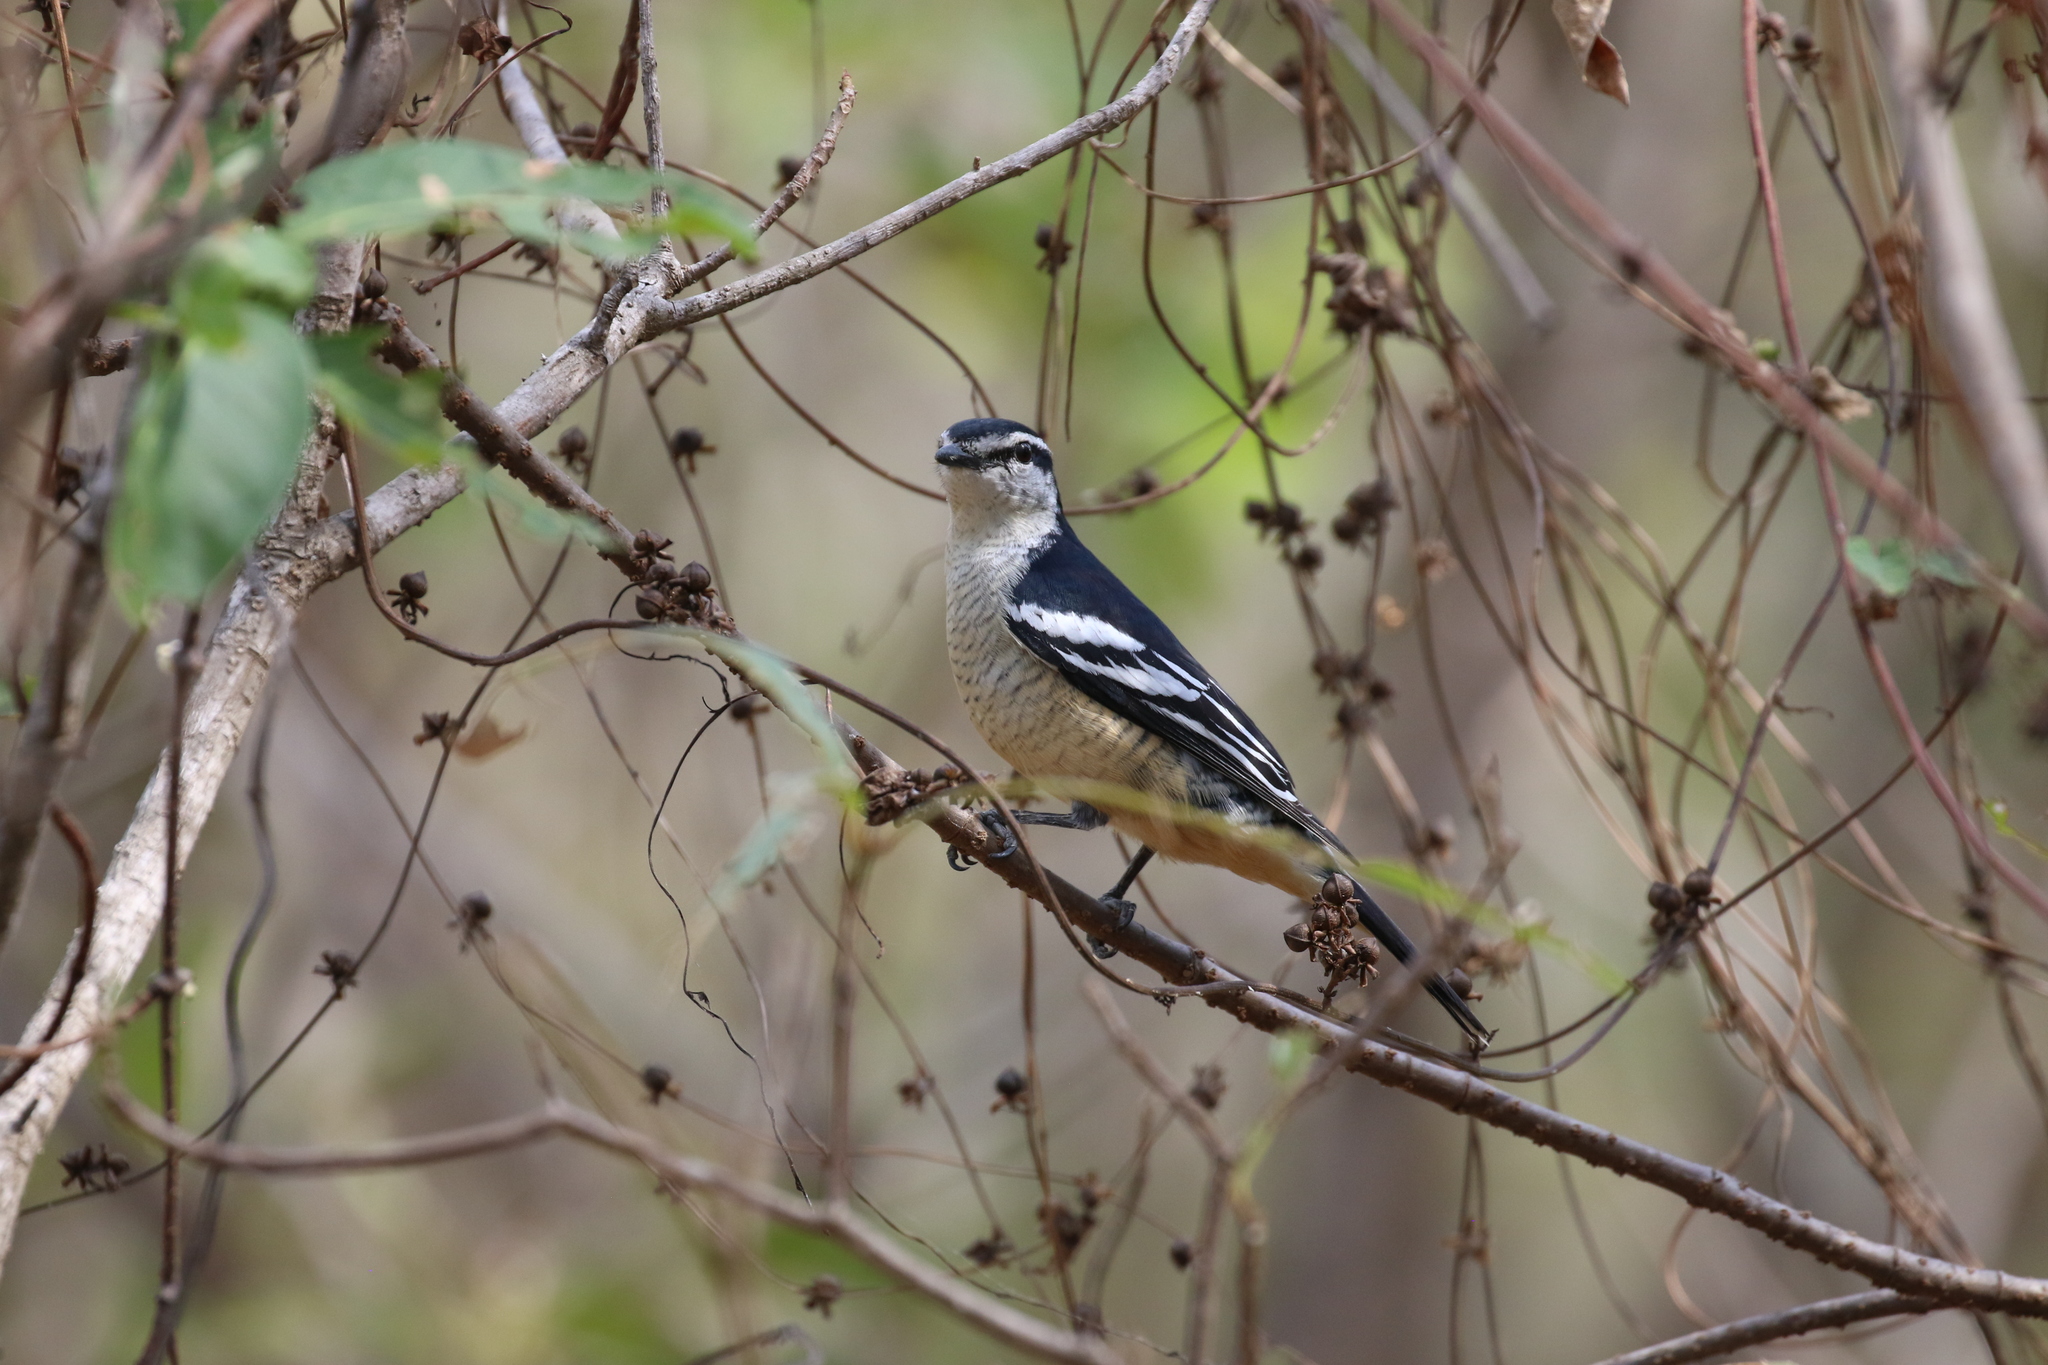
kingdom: Animalia
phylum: Chordata
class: Aves
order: Passeriformes
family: Campephagidae
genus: Lalage
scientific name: Lalage leucomela
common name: Varied triller
